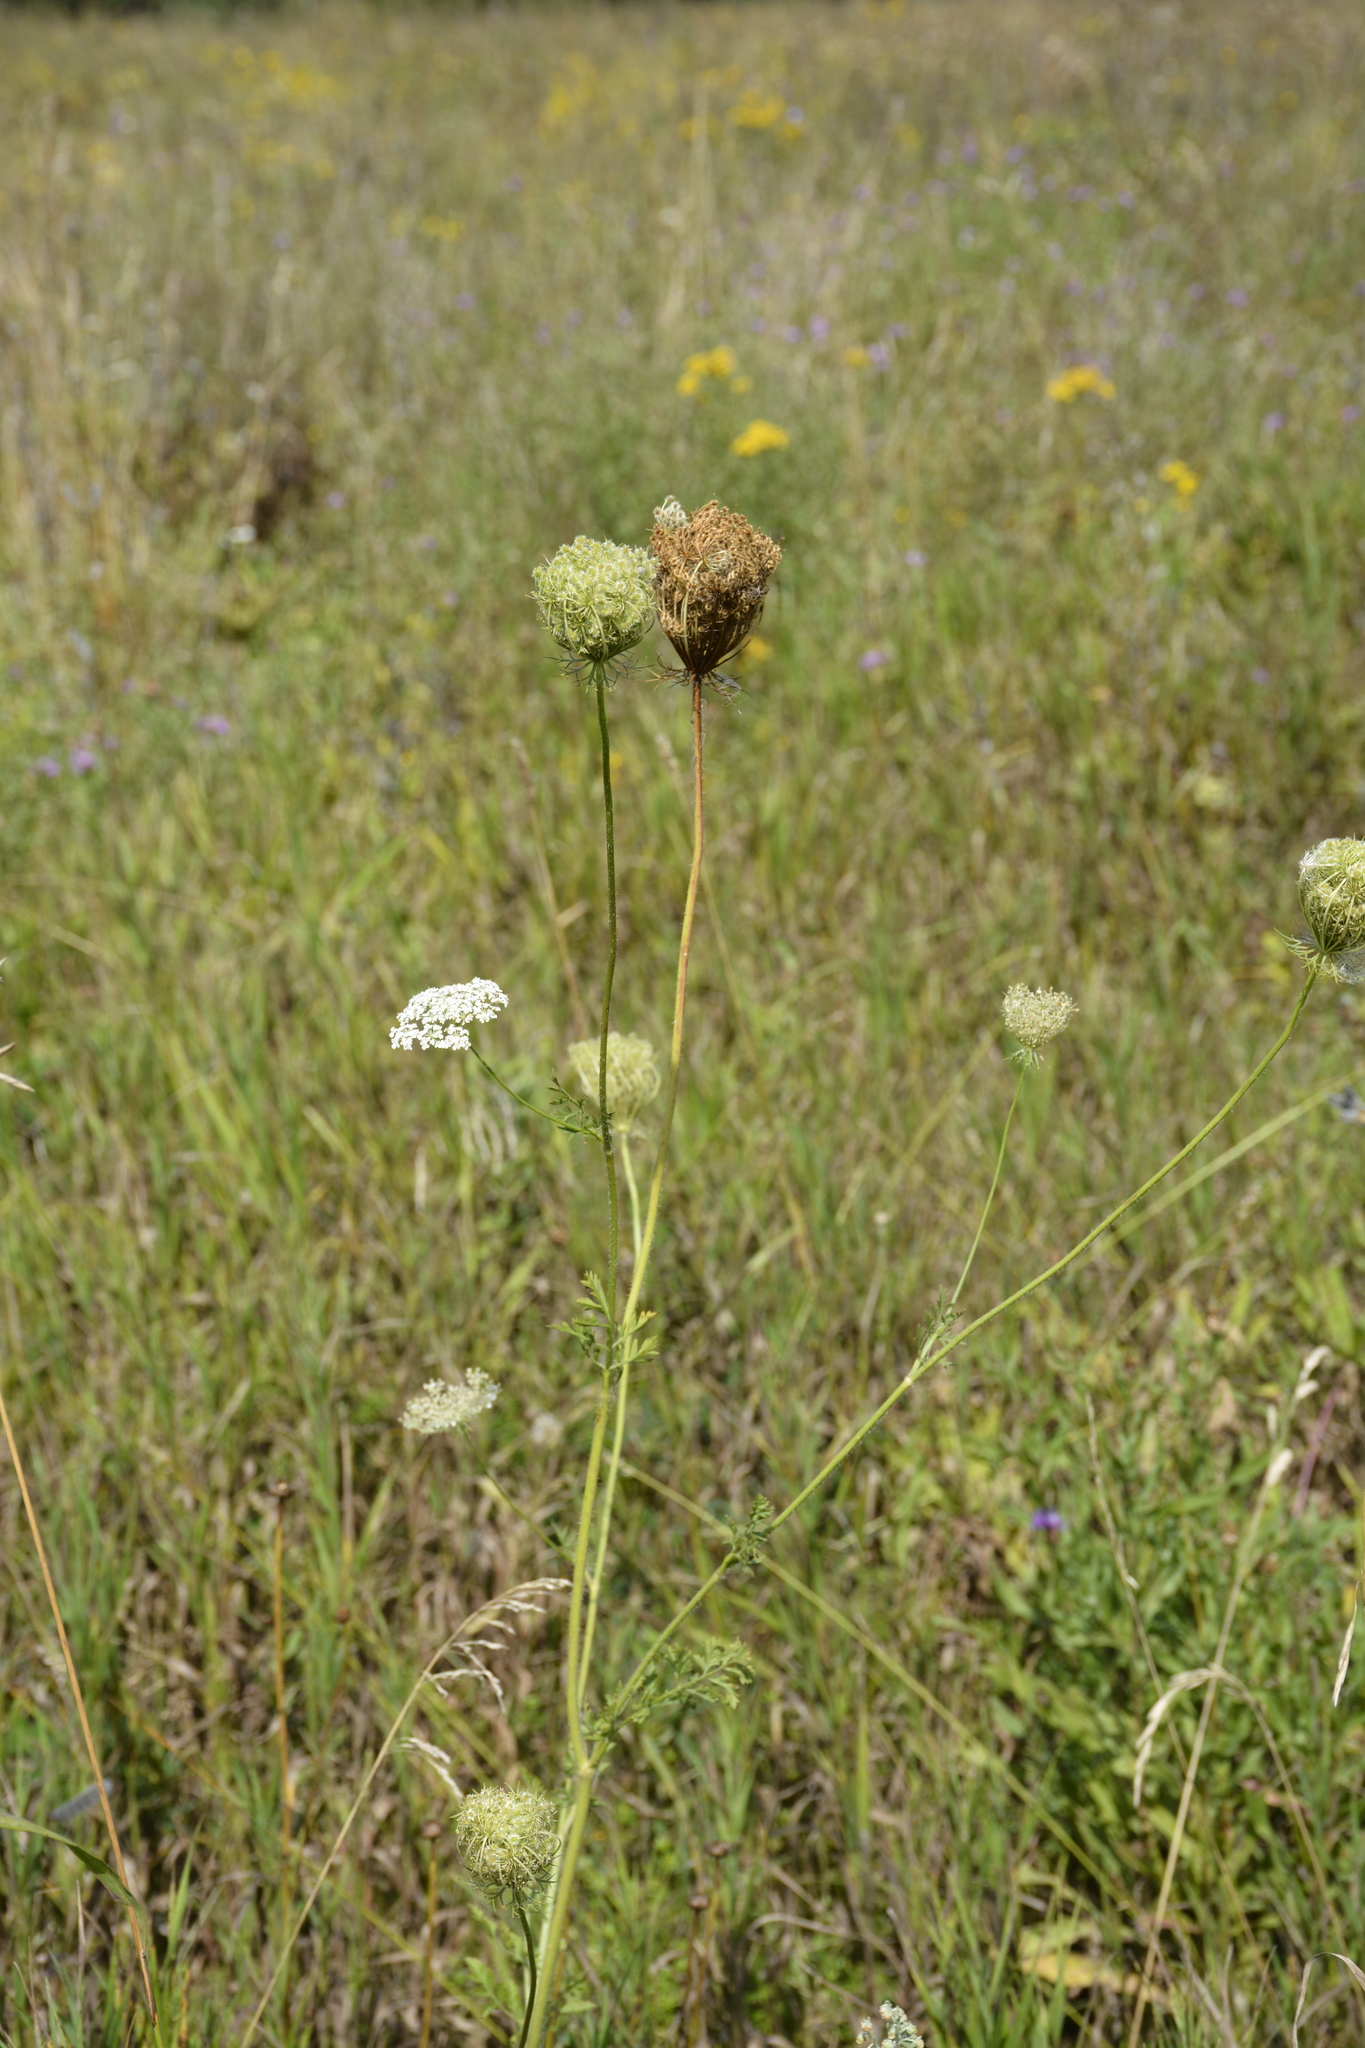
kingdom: Plantae
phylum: Tracheophyta
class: Magnoliopsida
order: Apiales
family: Apiaceae
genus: Daucus
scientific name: Daucus carota
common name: Wild carrot
